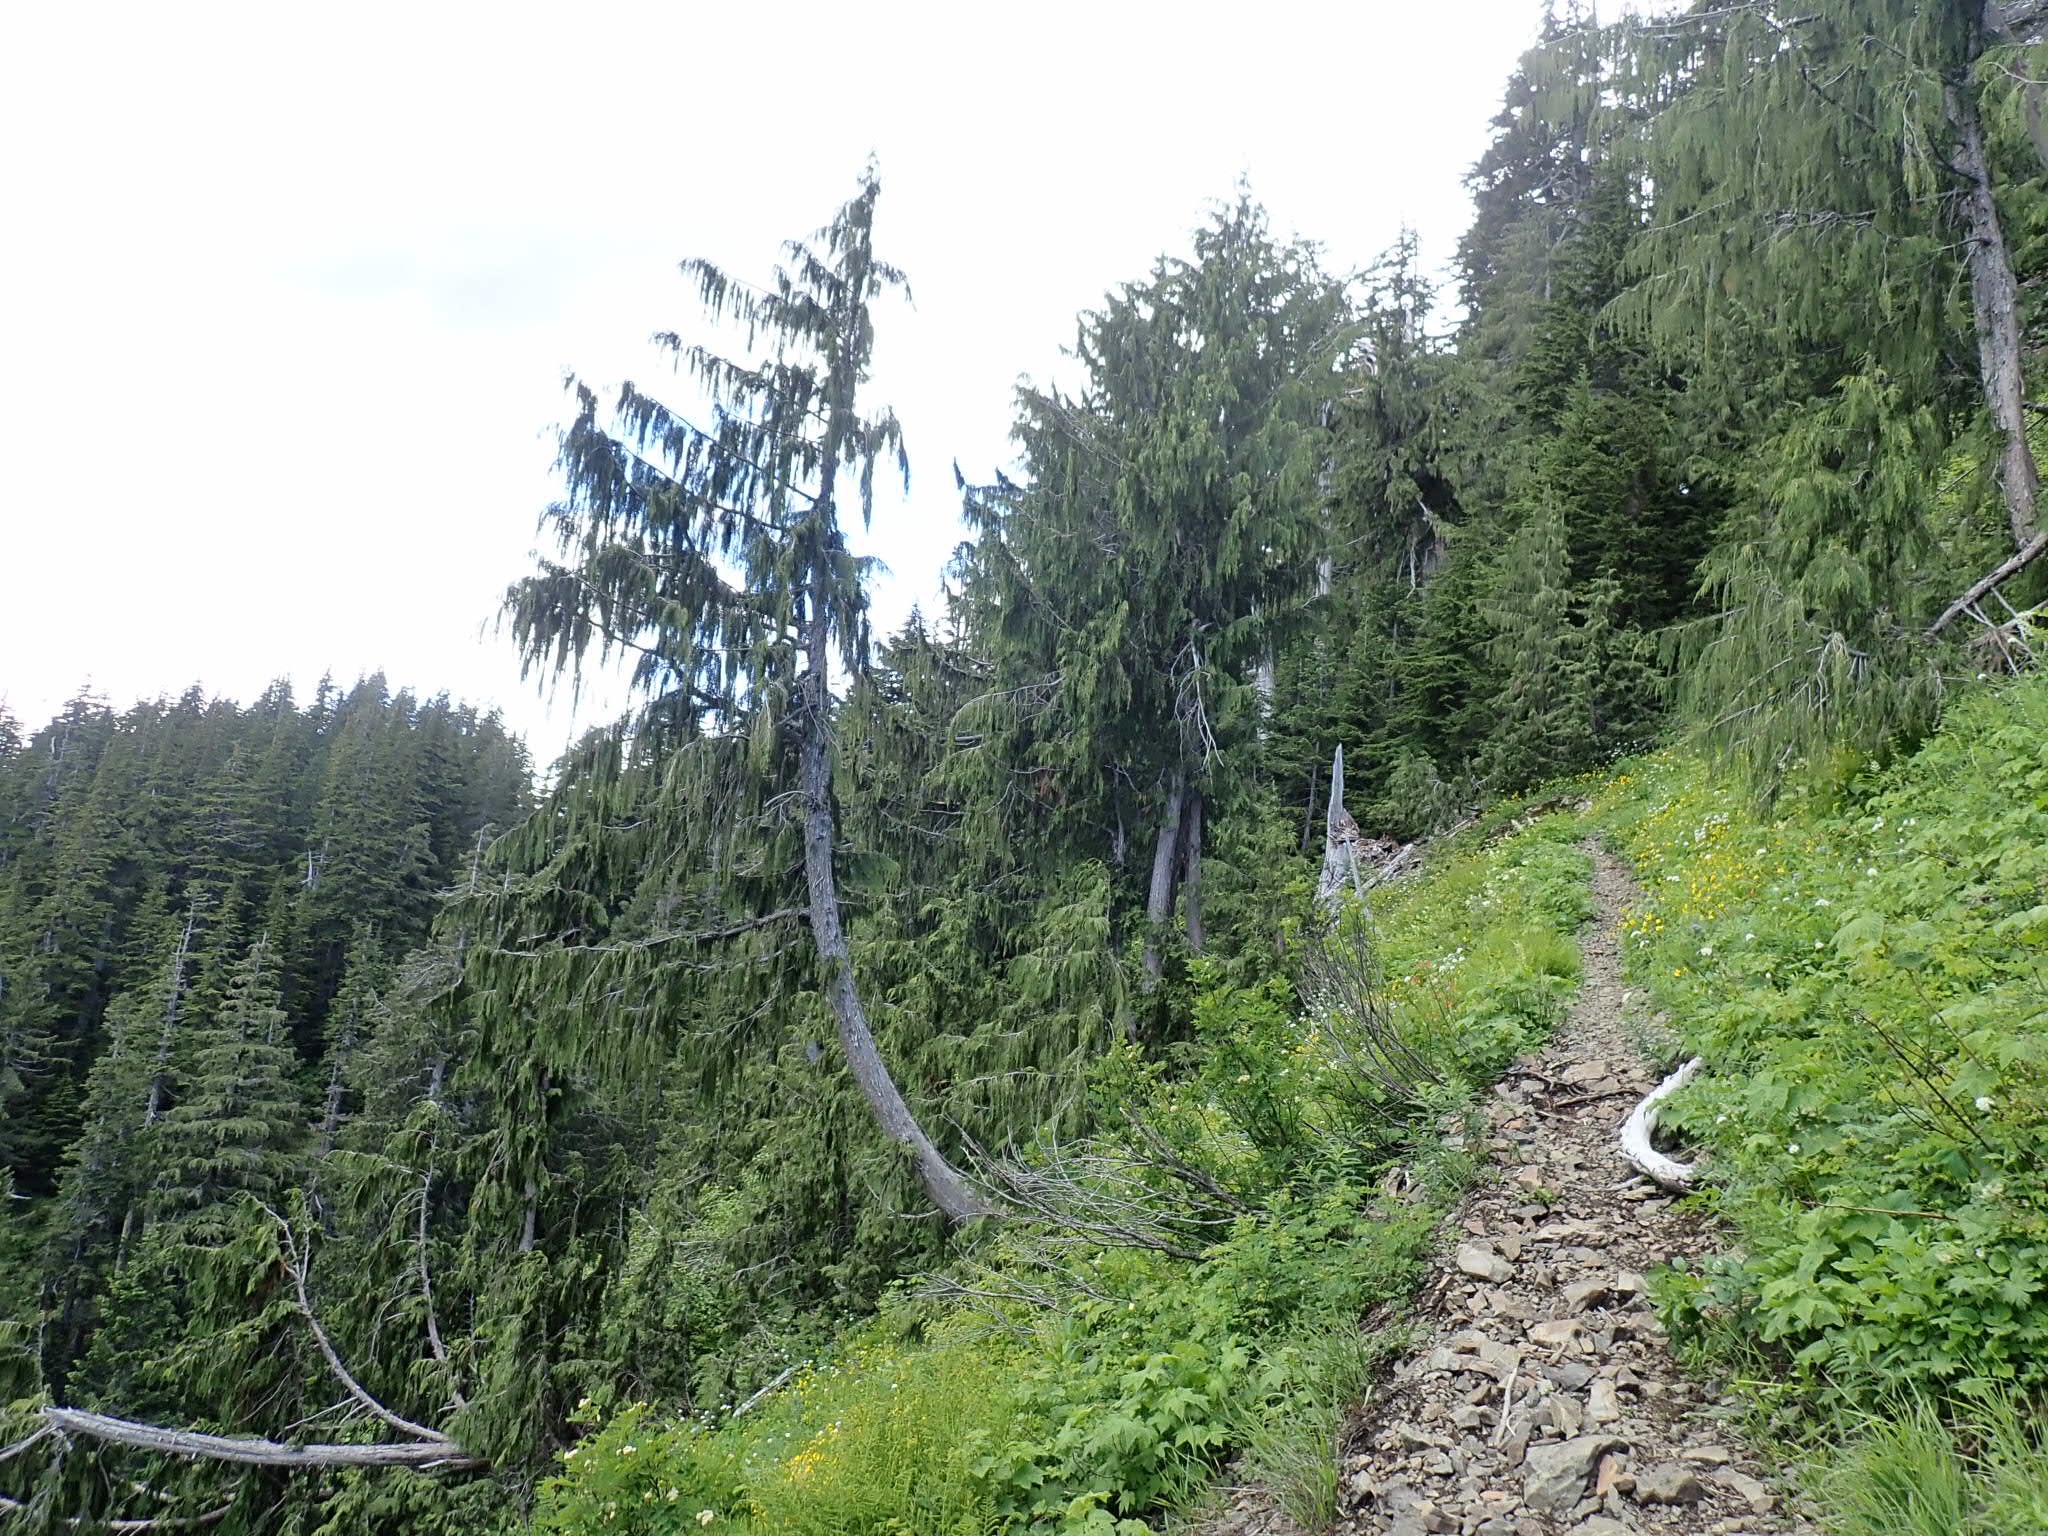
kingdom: Plantae
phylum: Tracheophyta
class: Pinopsida
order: Pinales
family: Cupressaceae
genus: Xanthocyparis
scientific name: Xanthocyparis nootkatensis
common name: Nootka cypress
